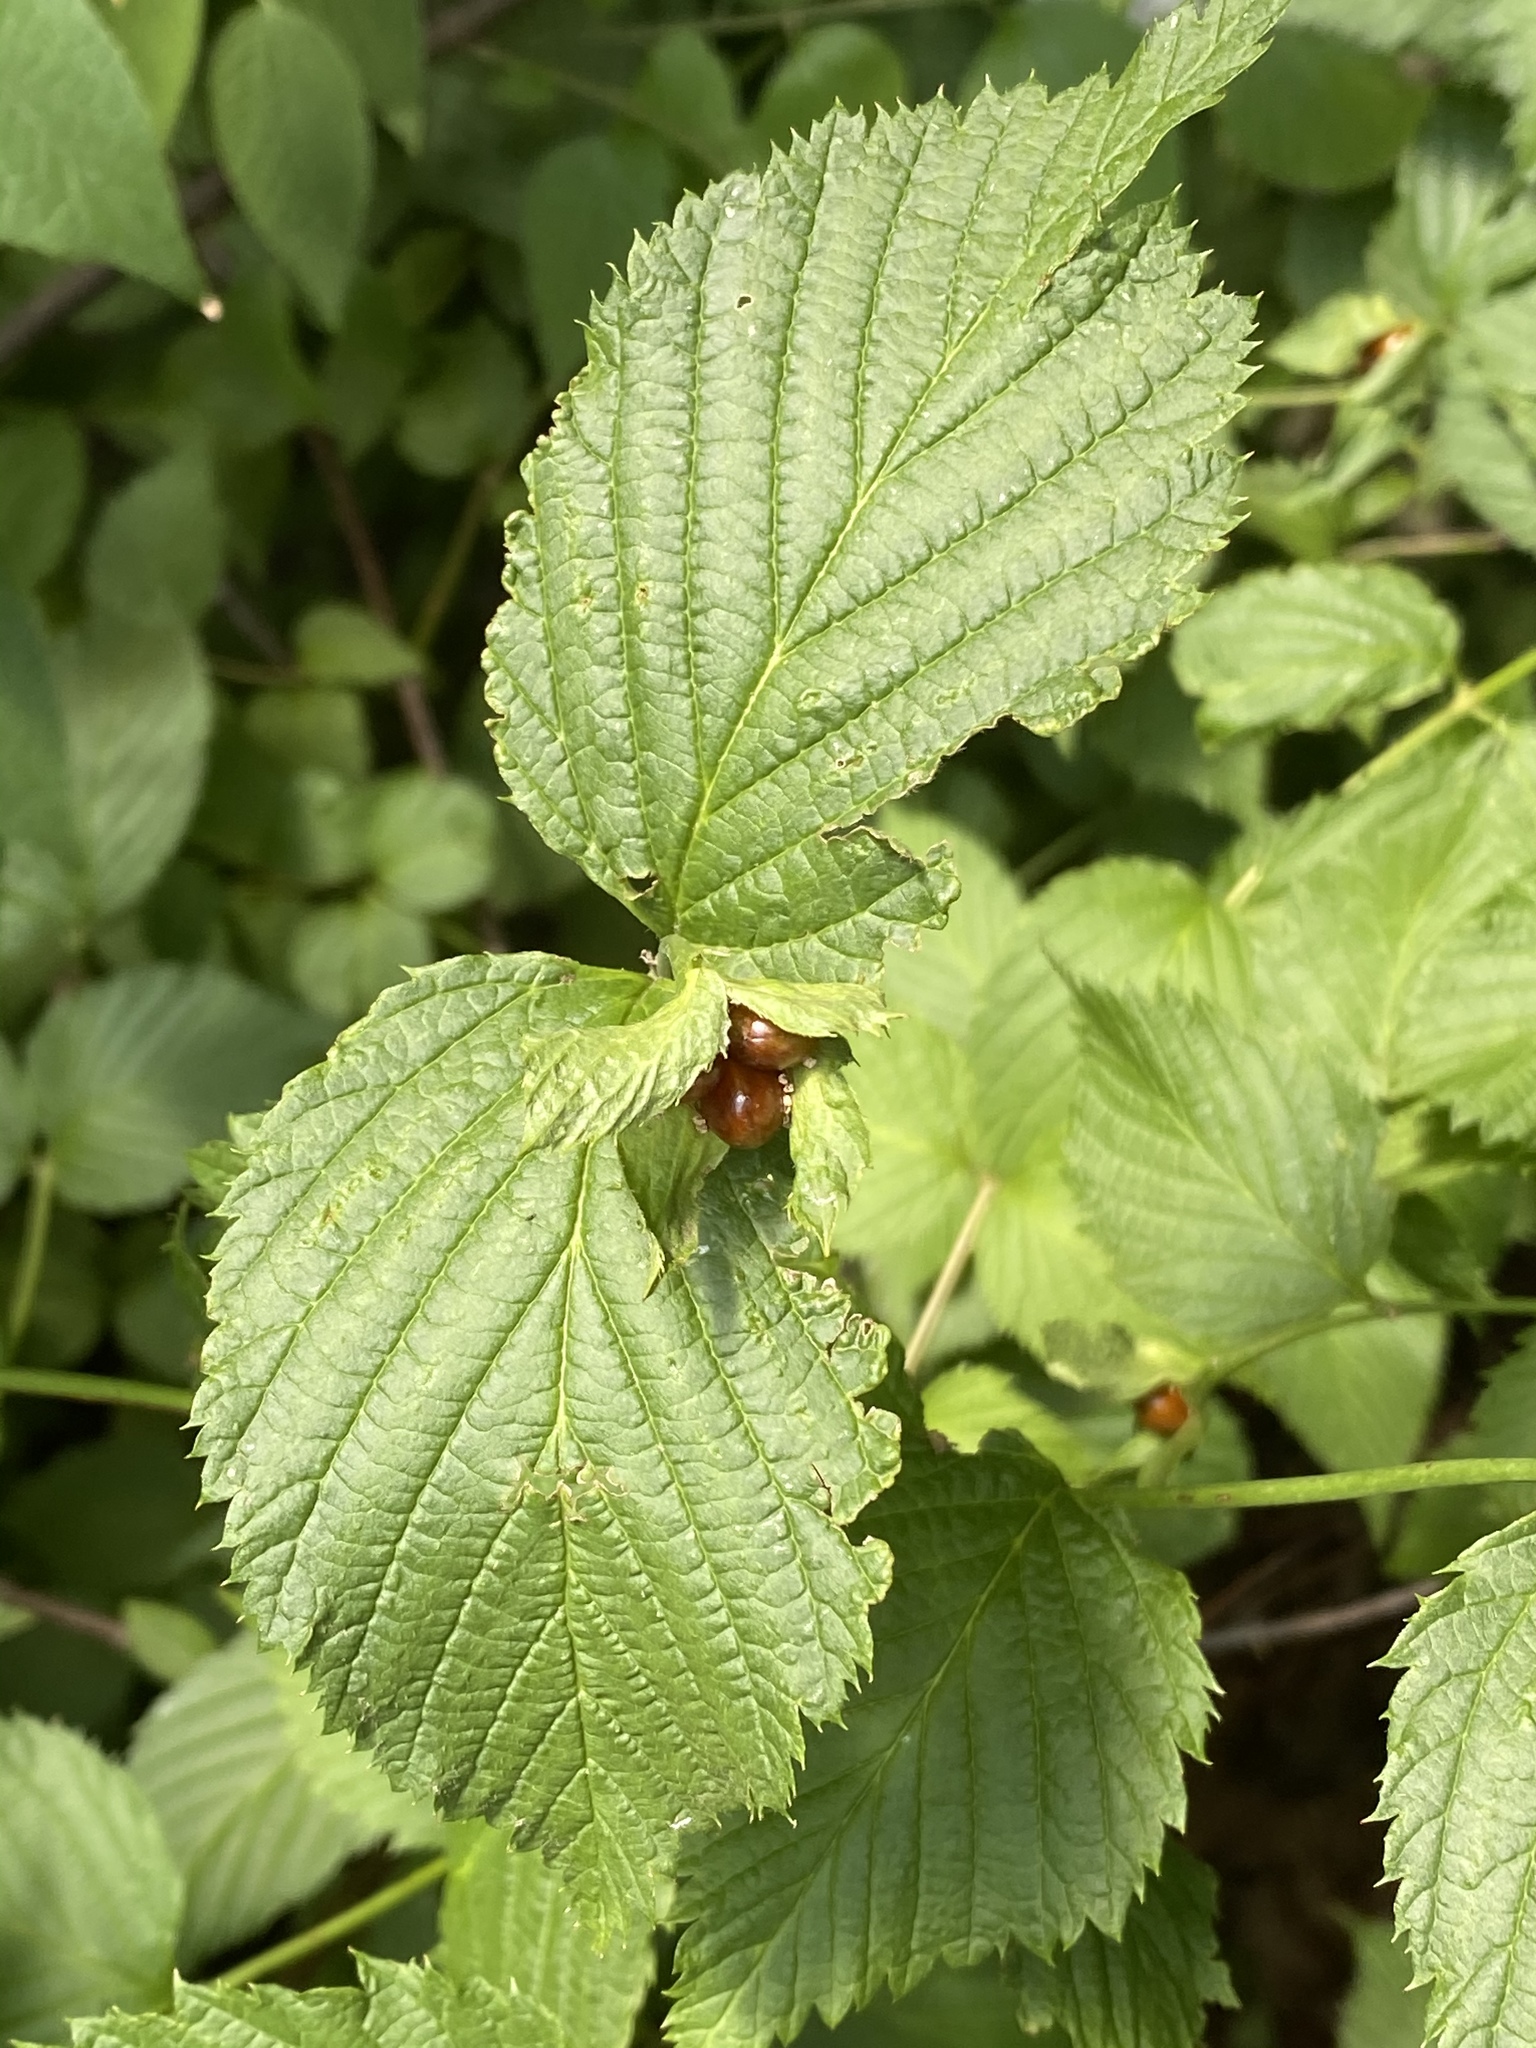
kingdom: Plantae
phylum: Tracheophyta
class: Magnoliopsida
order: Rosales
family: Rosaceae
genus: Rhodotypos
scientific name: Rhodotypos scandens
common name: Jetbead
